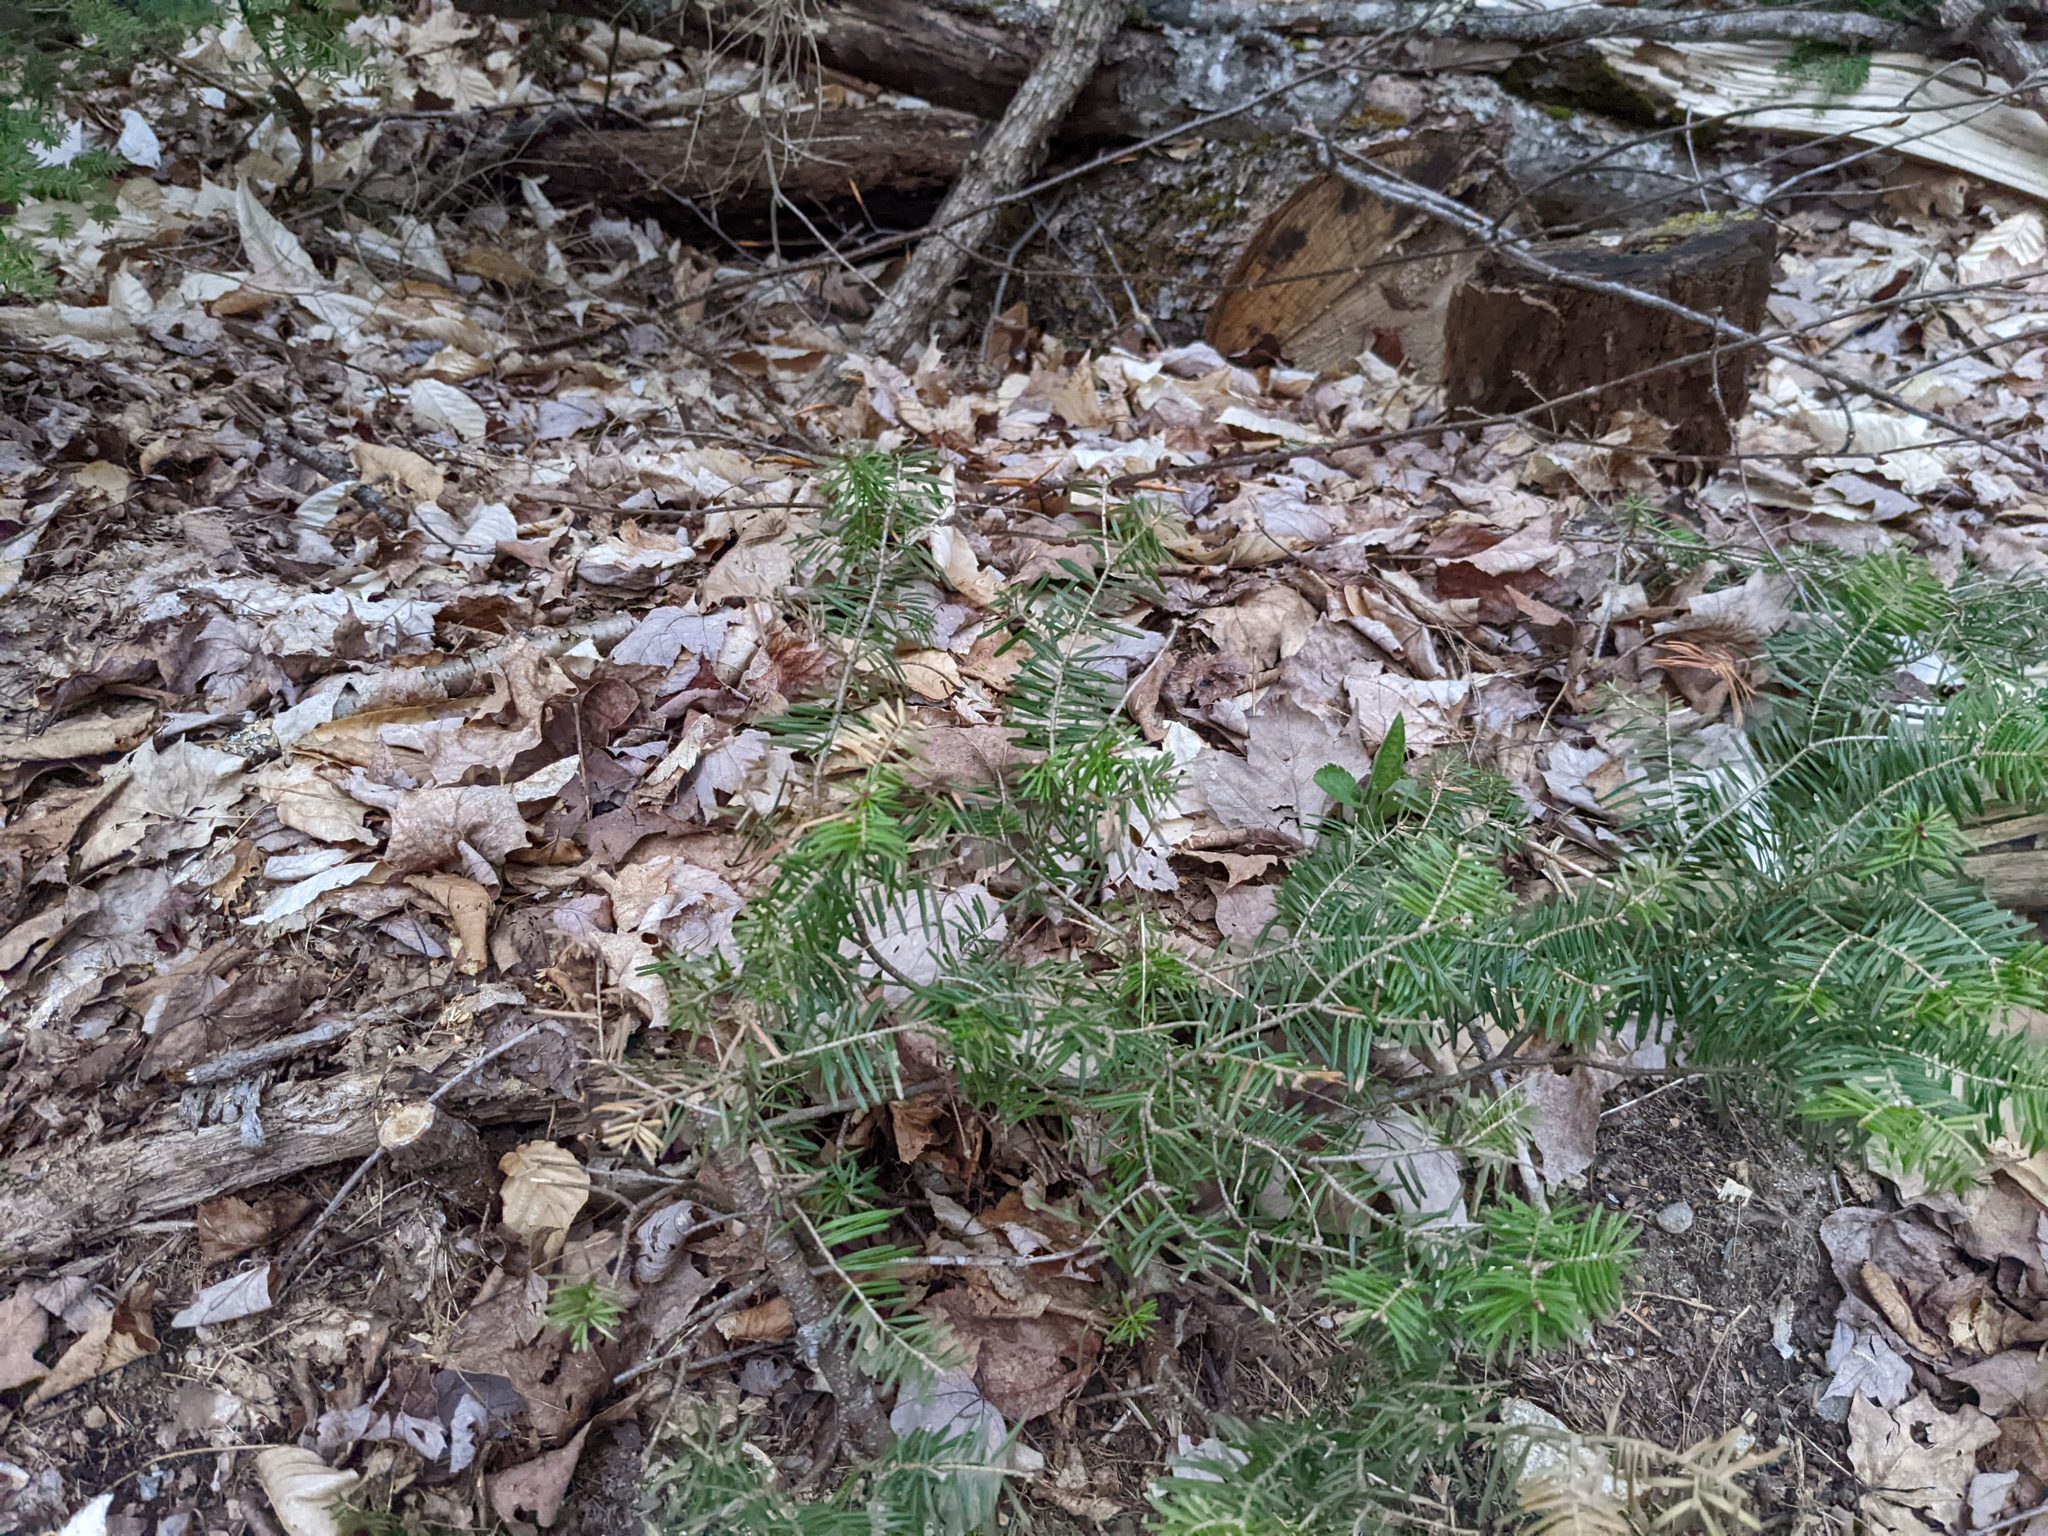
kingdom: Plantae
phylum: Tracheophyta
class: Pinopsida
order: Pinales
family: Pinaceae
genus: Abies
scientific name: Abies balsamea
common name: Balsam fir
